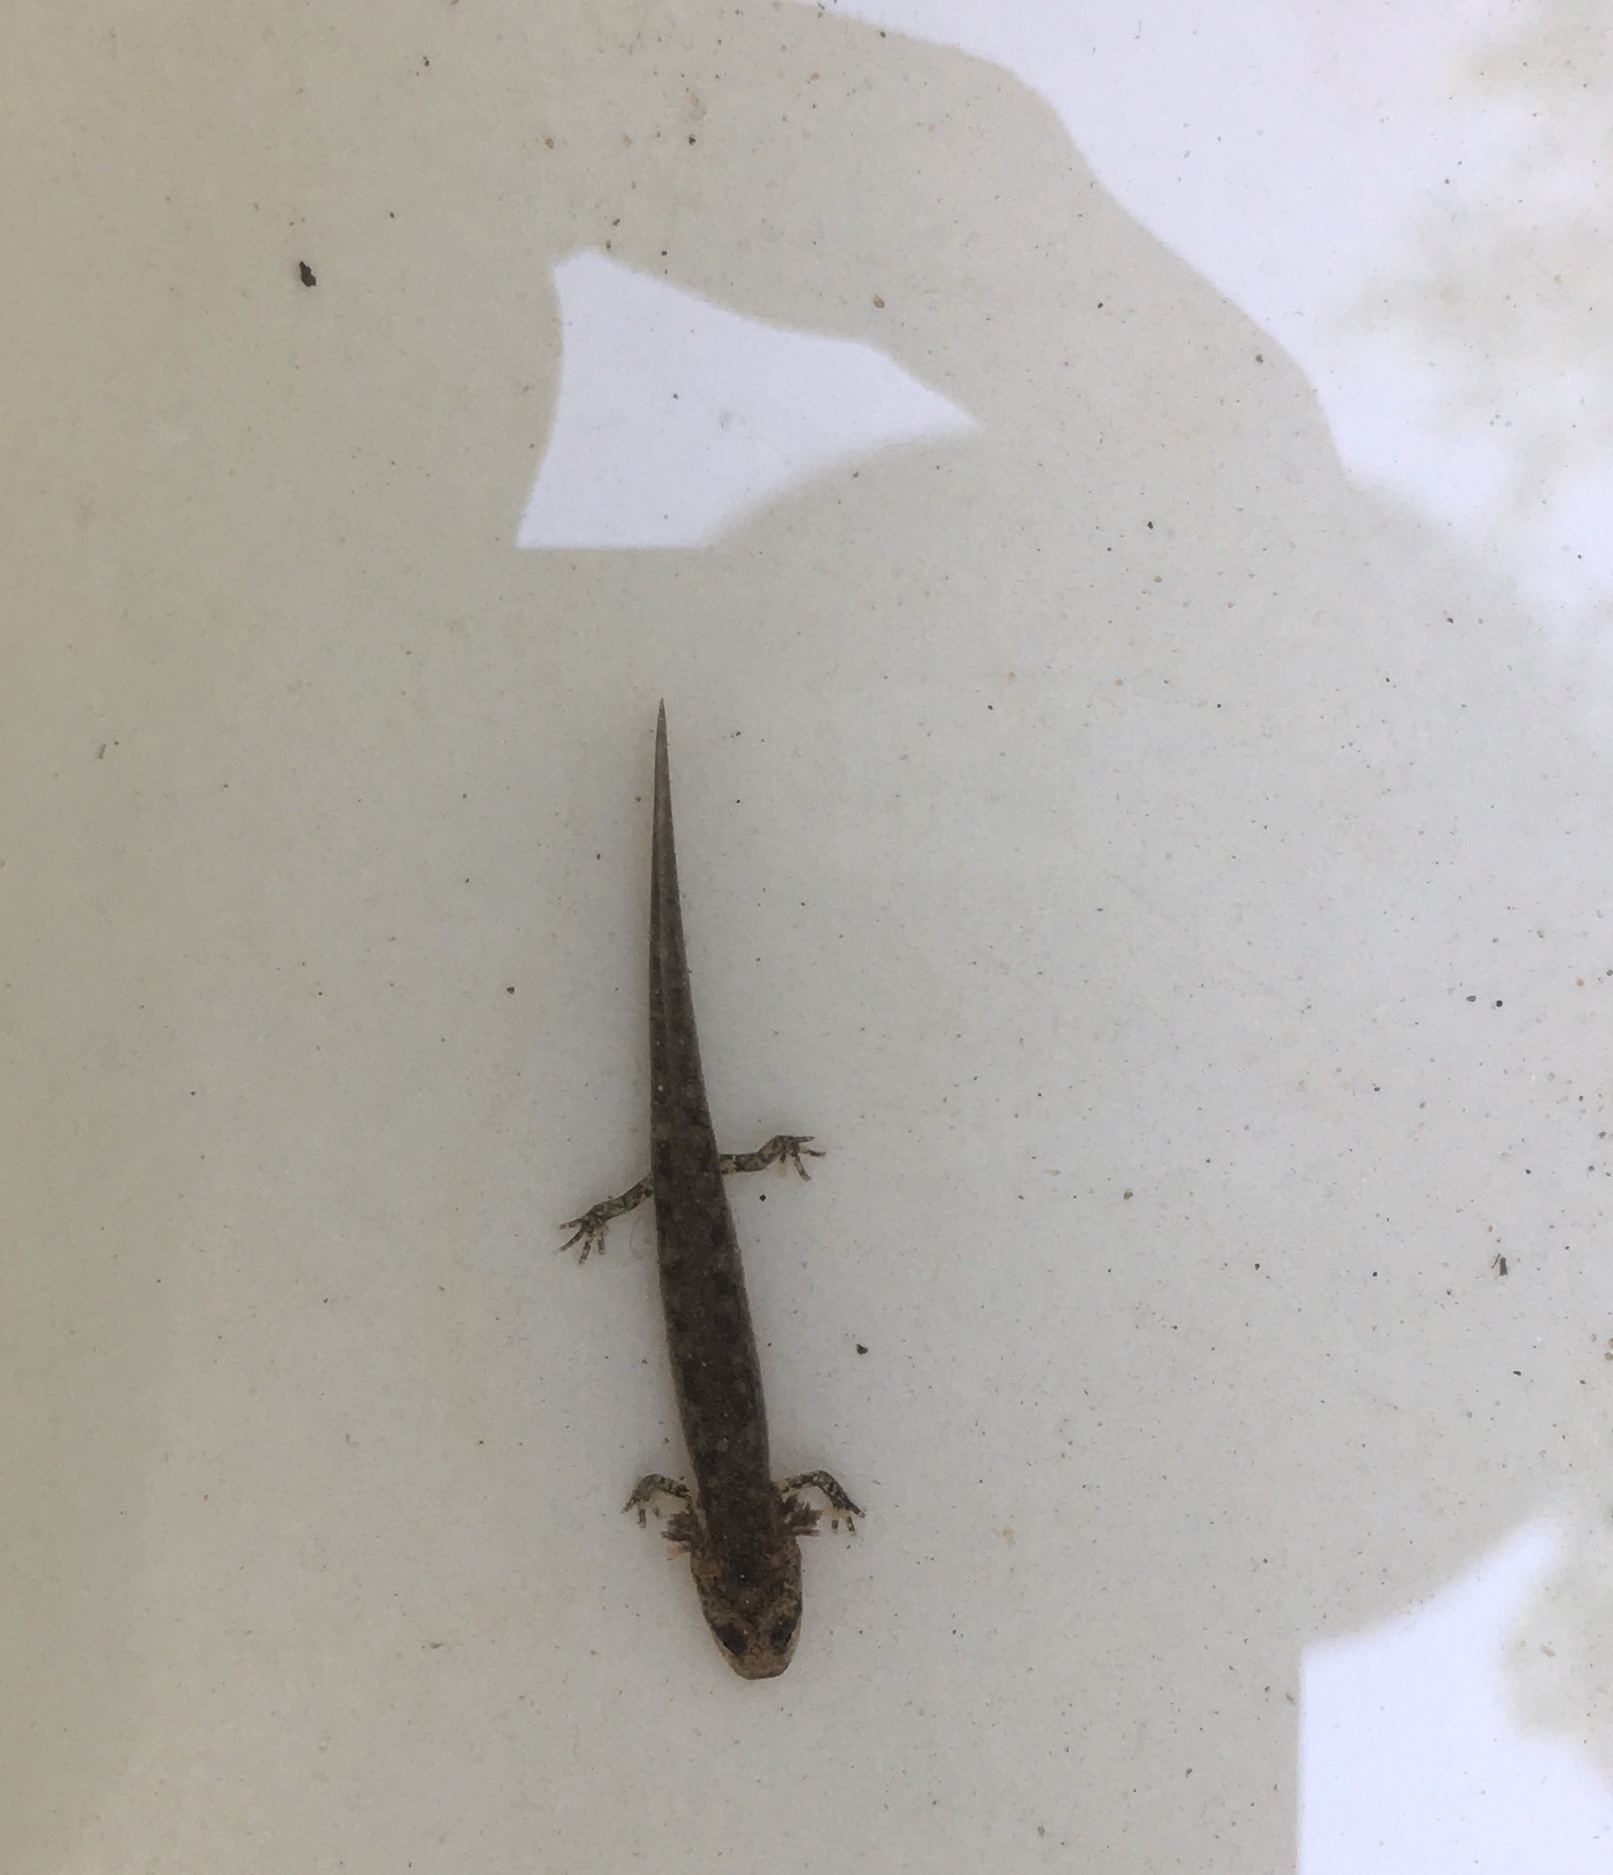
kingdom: Animalia
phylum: Chordata
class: Amphibia
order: Caudata
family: Plethodontidae
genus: Eurycea
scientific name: Eurycea bislineata
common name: Northern two-lined salamander
